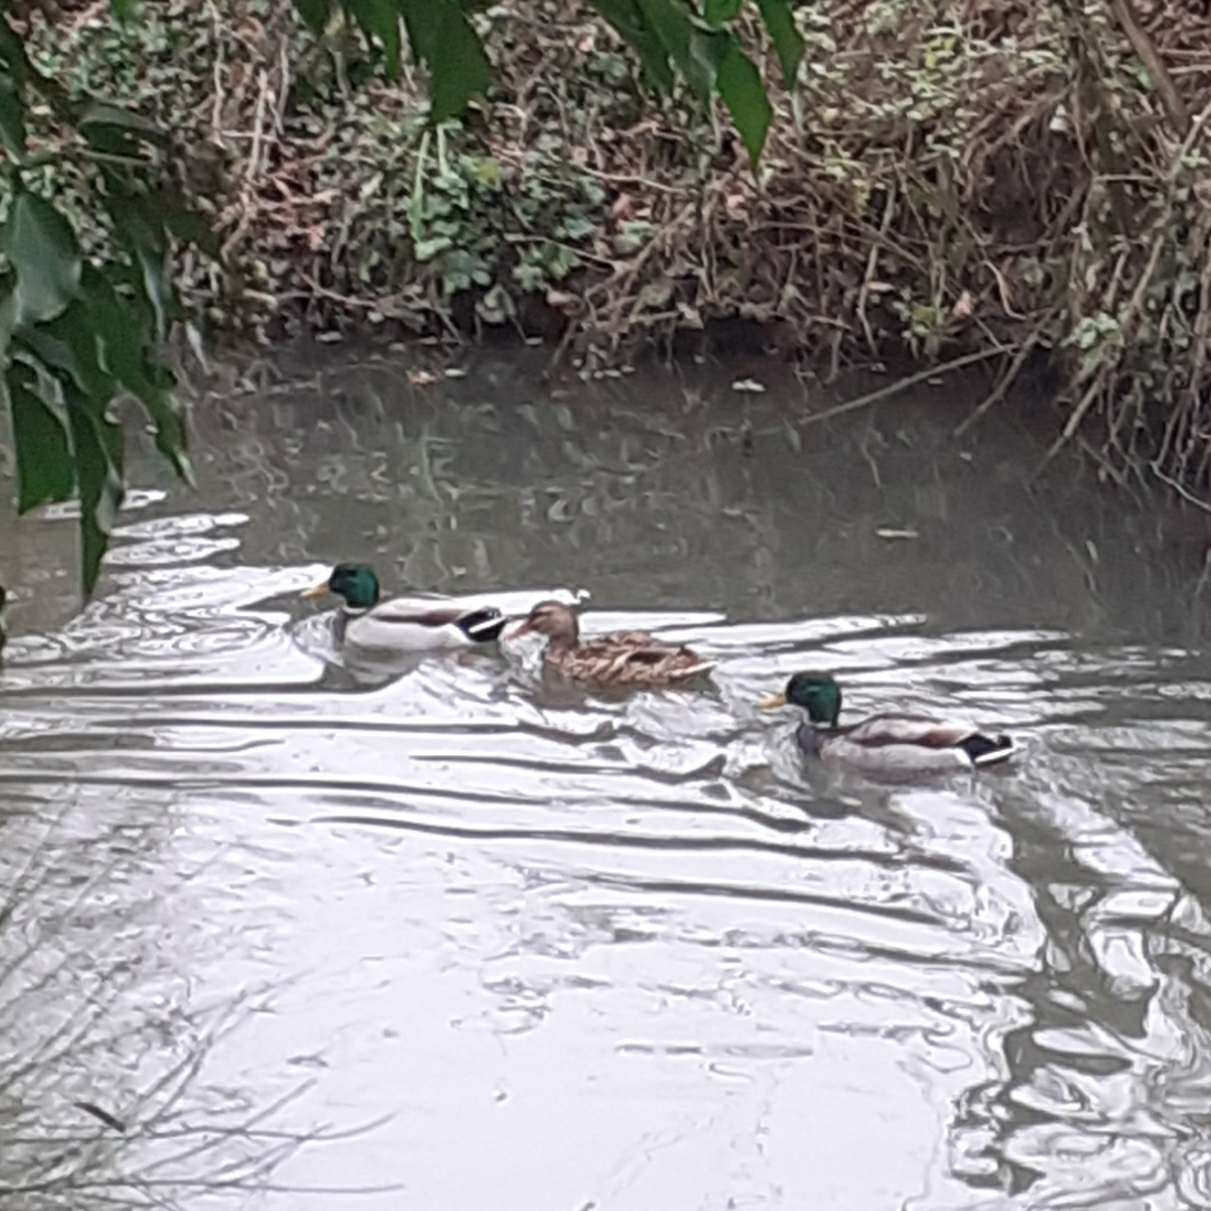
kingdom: Animalia
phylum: Chordata
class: Aves
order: Anseriformes
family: Anatidae
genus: Anas
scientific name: Anas platyrhynchos
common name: Mallard
